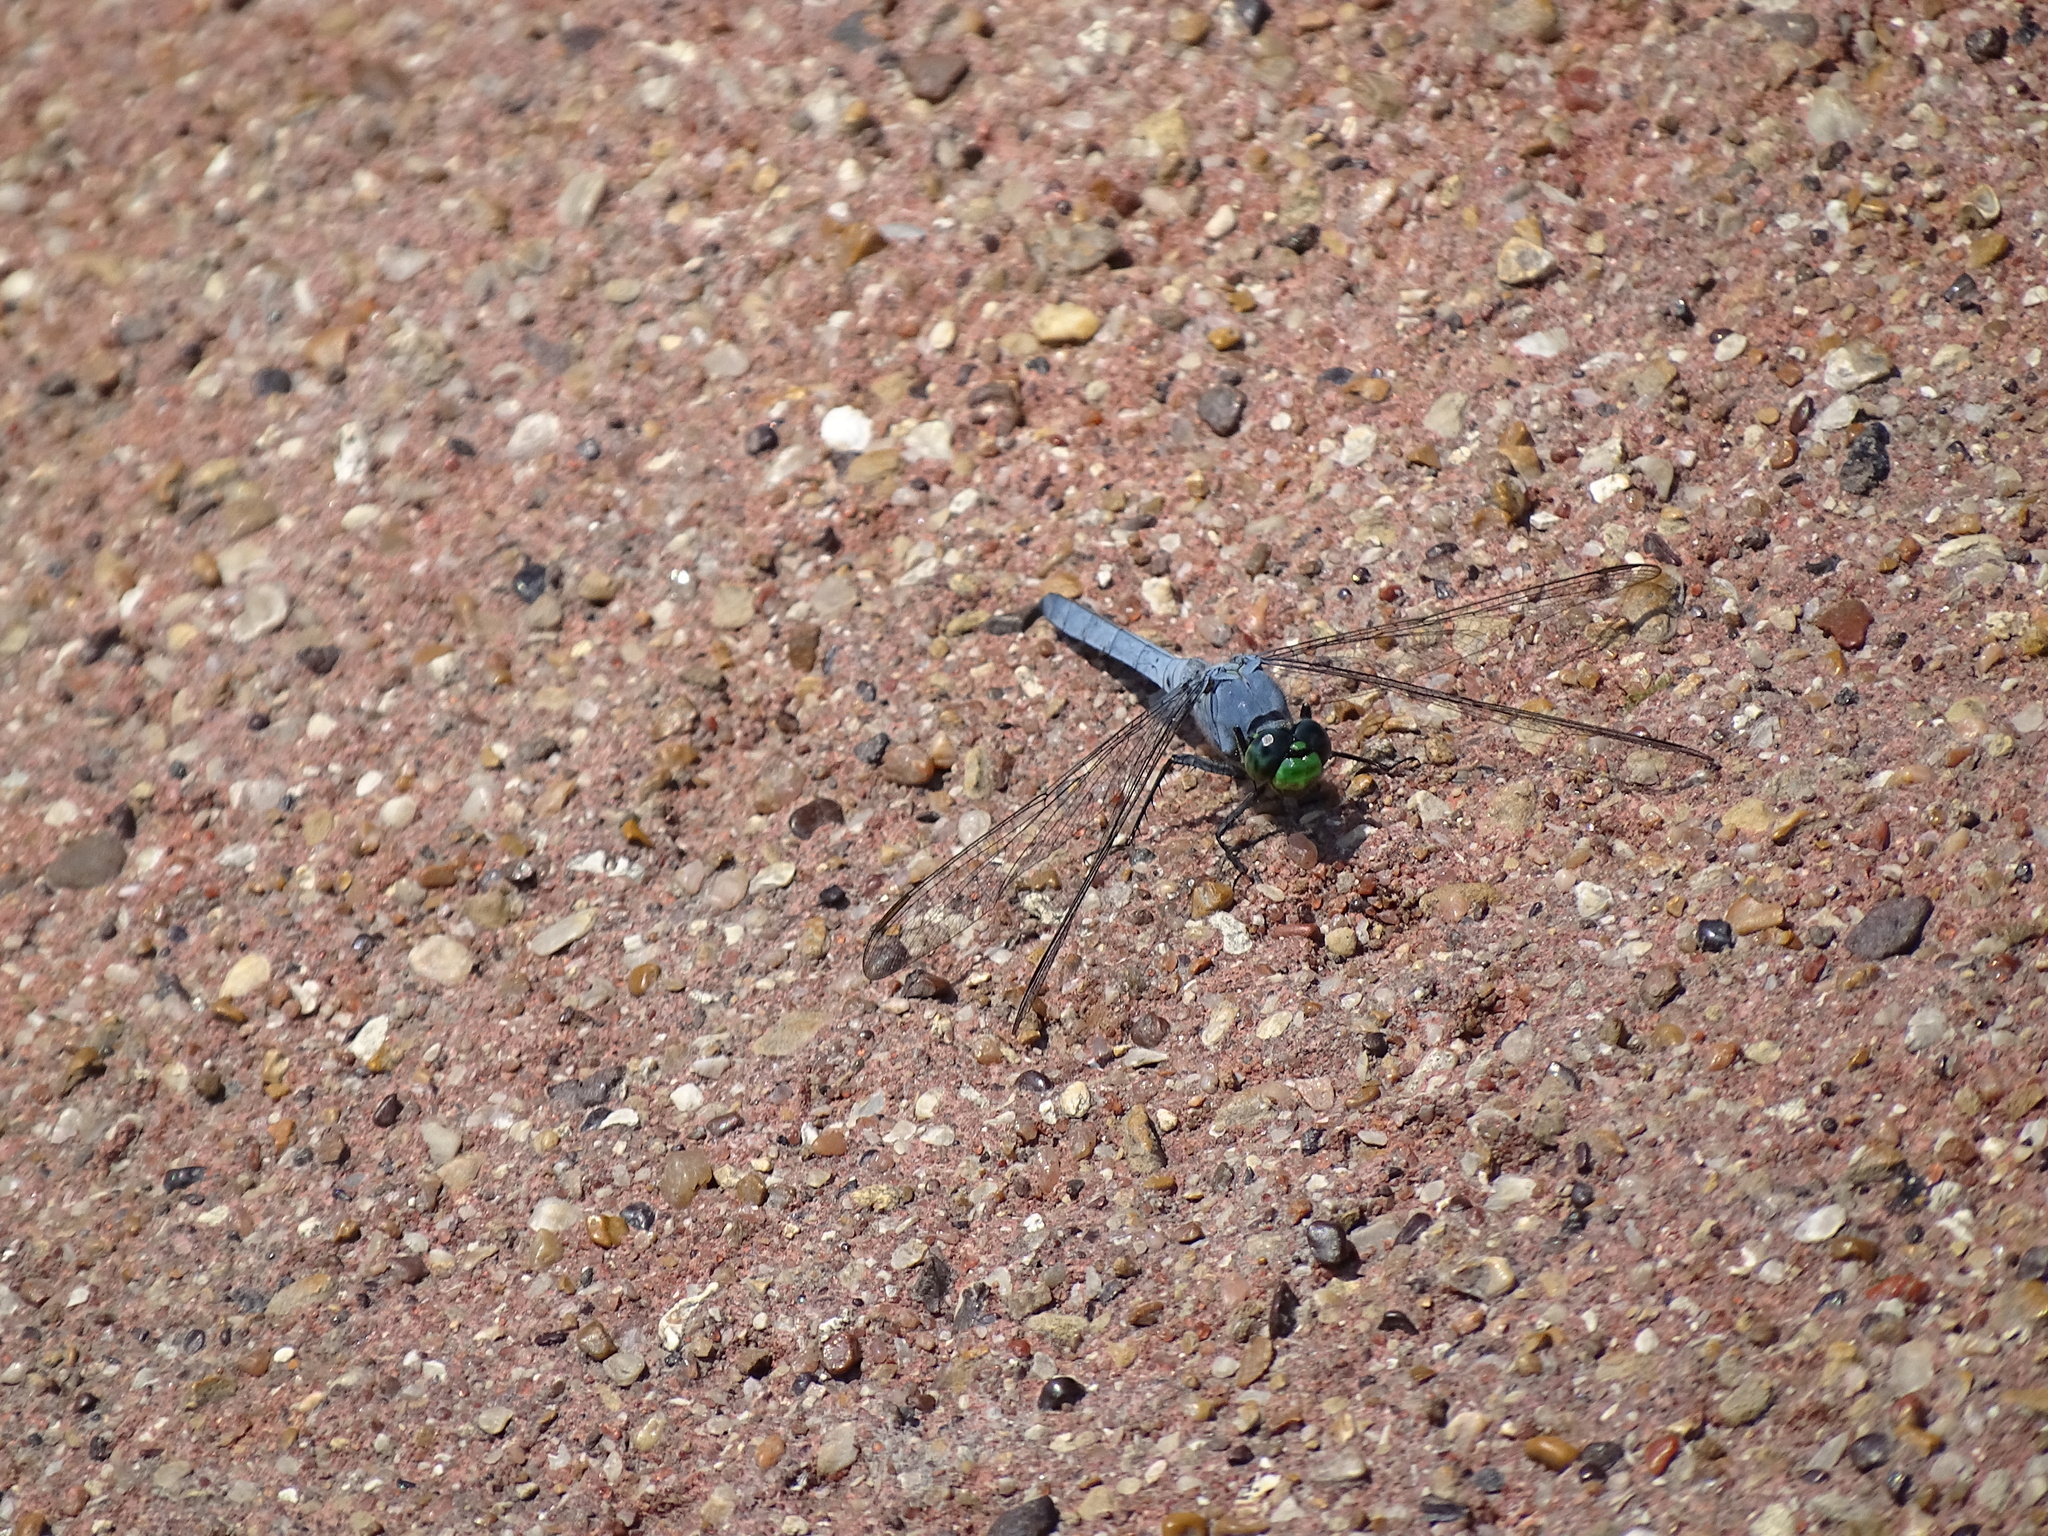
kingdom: Animalia
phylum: Arthropoda
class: Insecta
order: Odonata
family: Libellulidae
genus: Erythemis
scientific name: Erythemis simplicicollis
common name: Eastern pondhawk
